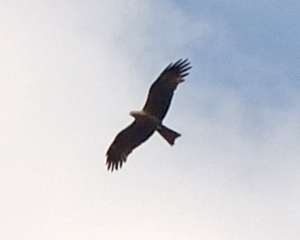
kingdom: Animalia
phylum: Chordata
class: Aves
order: Accipitriformes
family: Accipitridae
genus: Milvus
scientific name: Milvus migrans
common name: Black kite
